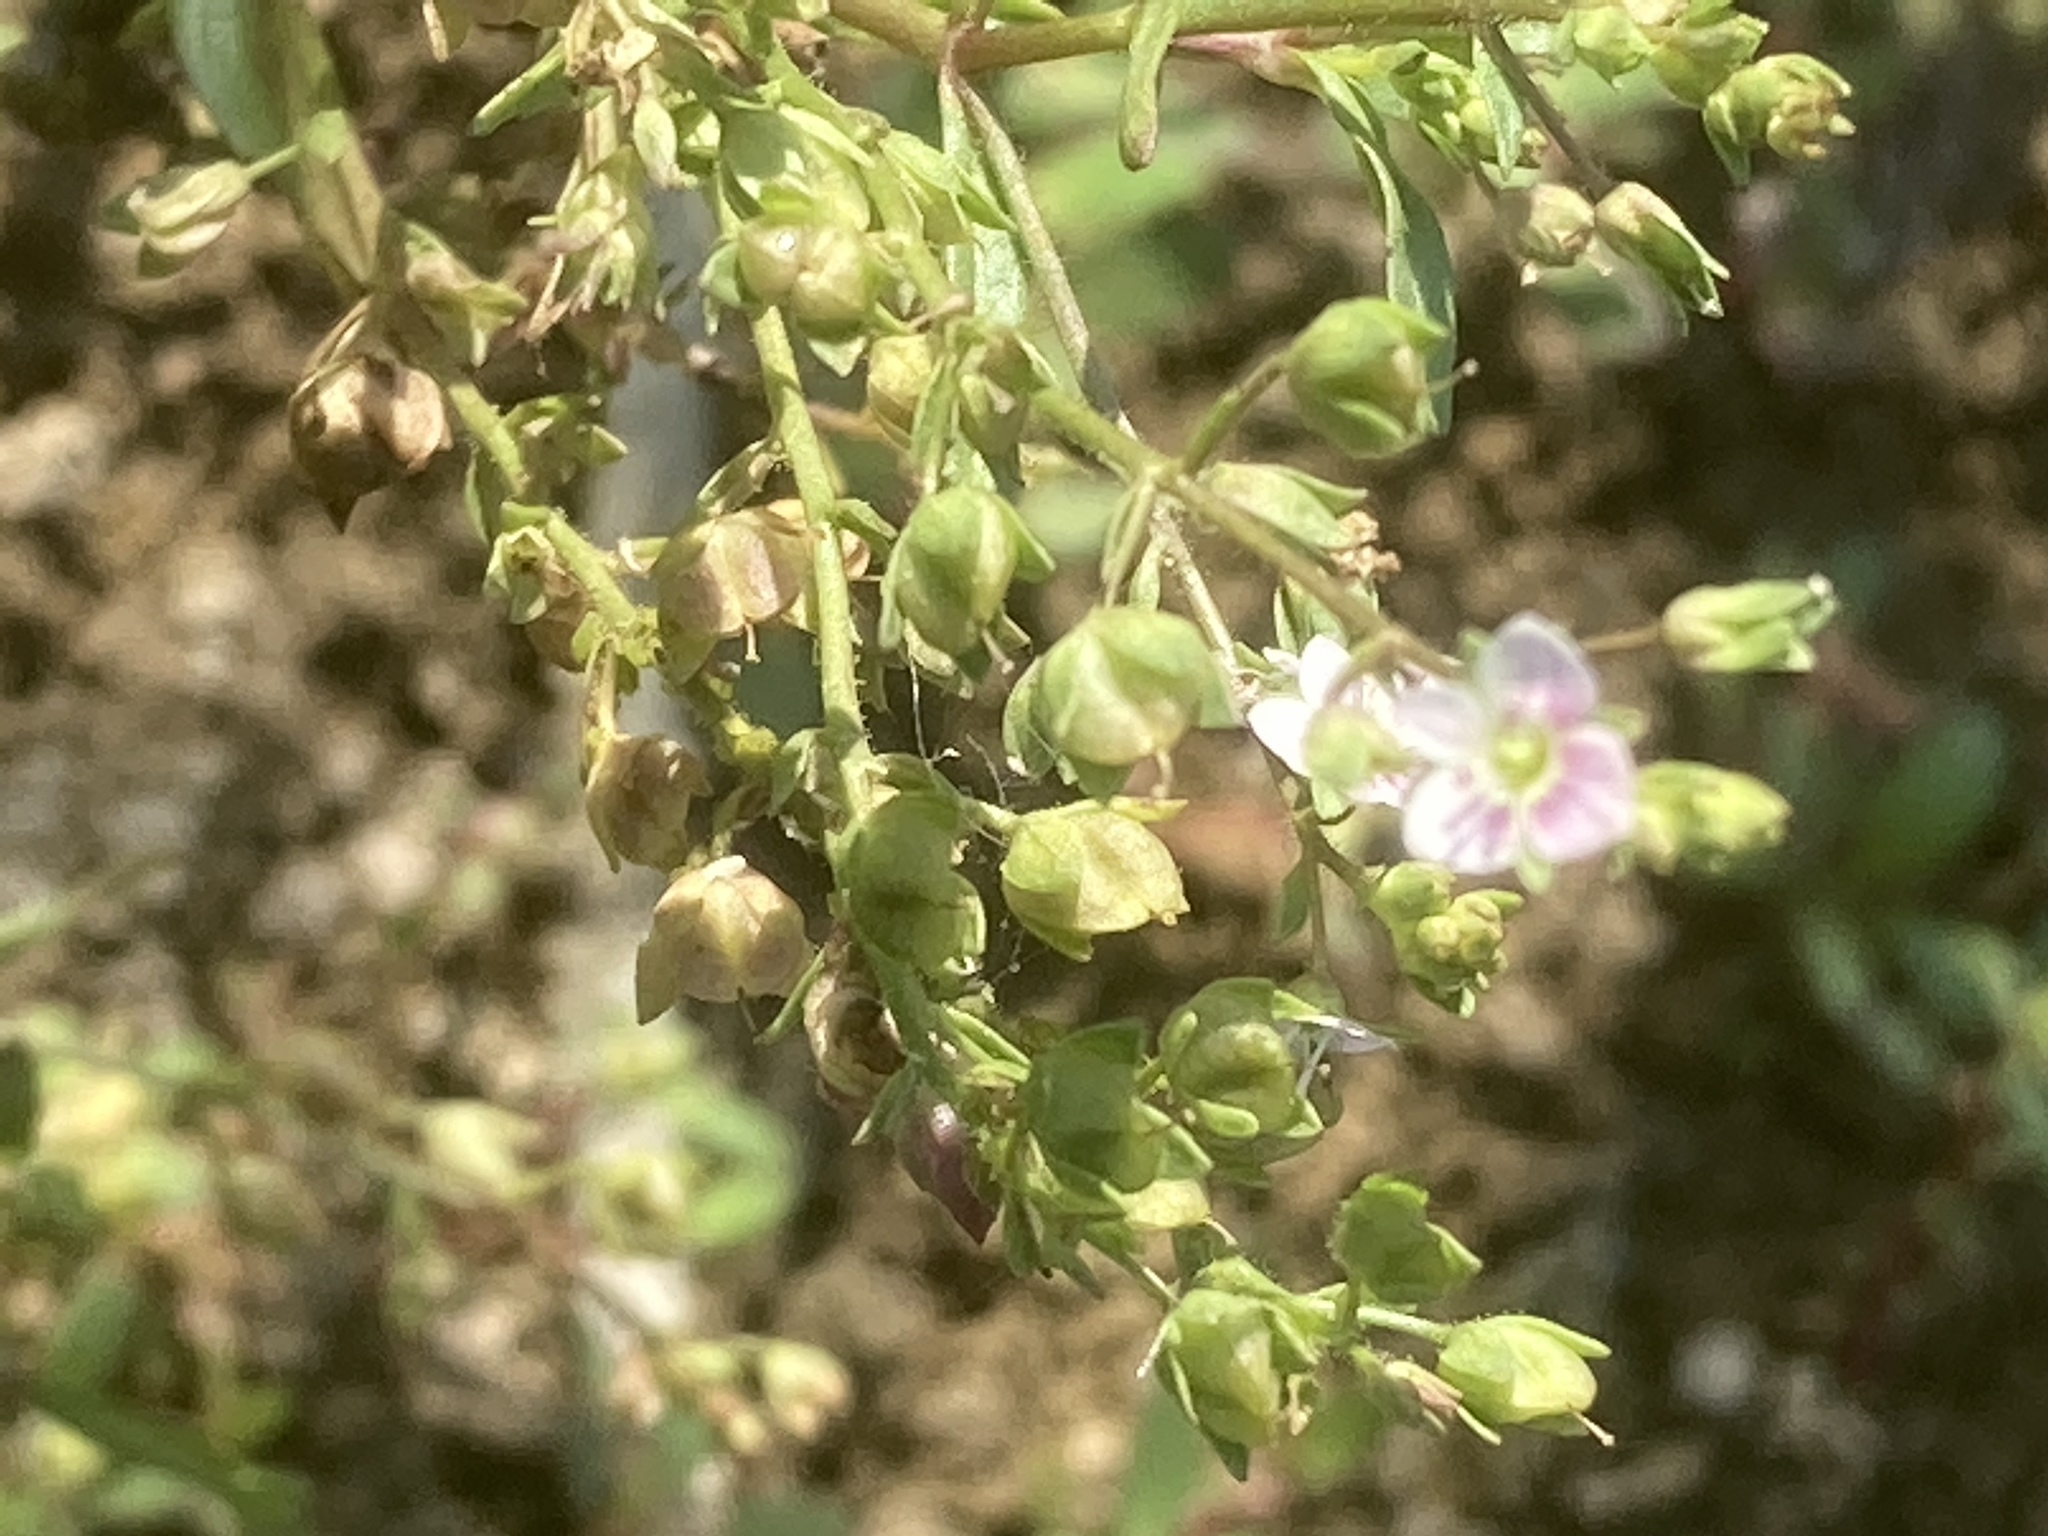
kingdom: Plantae
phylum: Tracheophyta
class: Magnoliopsida
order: Lamiales
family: Plantaginaceae
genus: Veronica
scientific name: Veronica anagallis-aquatica
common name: Water speedwell
